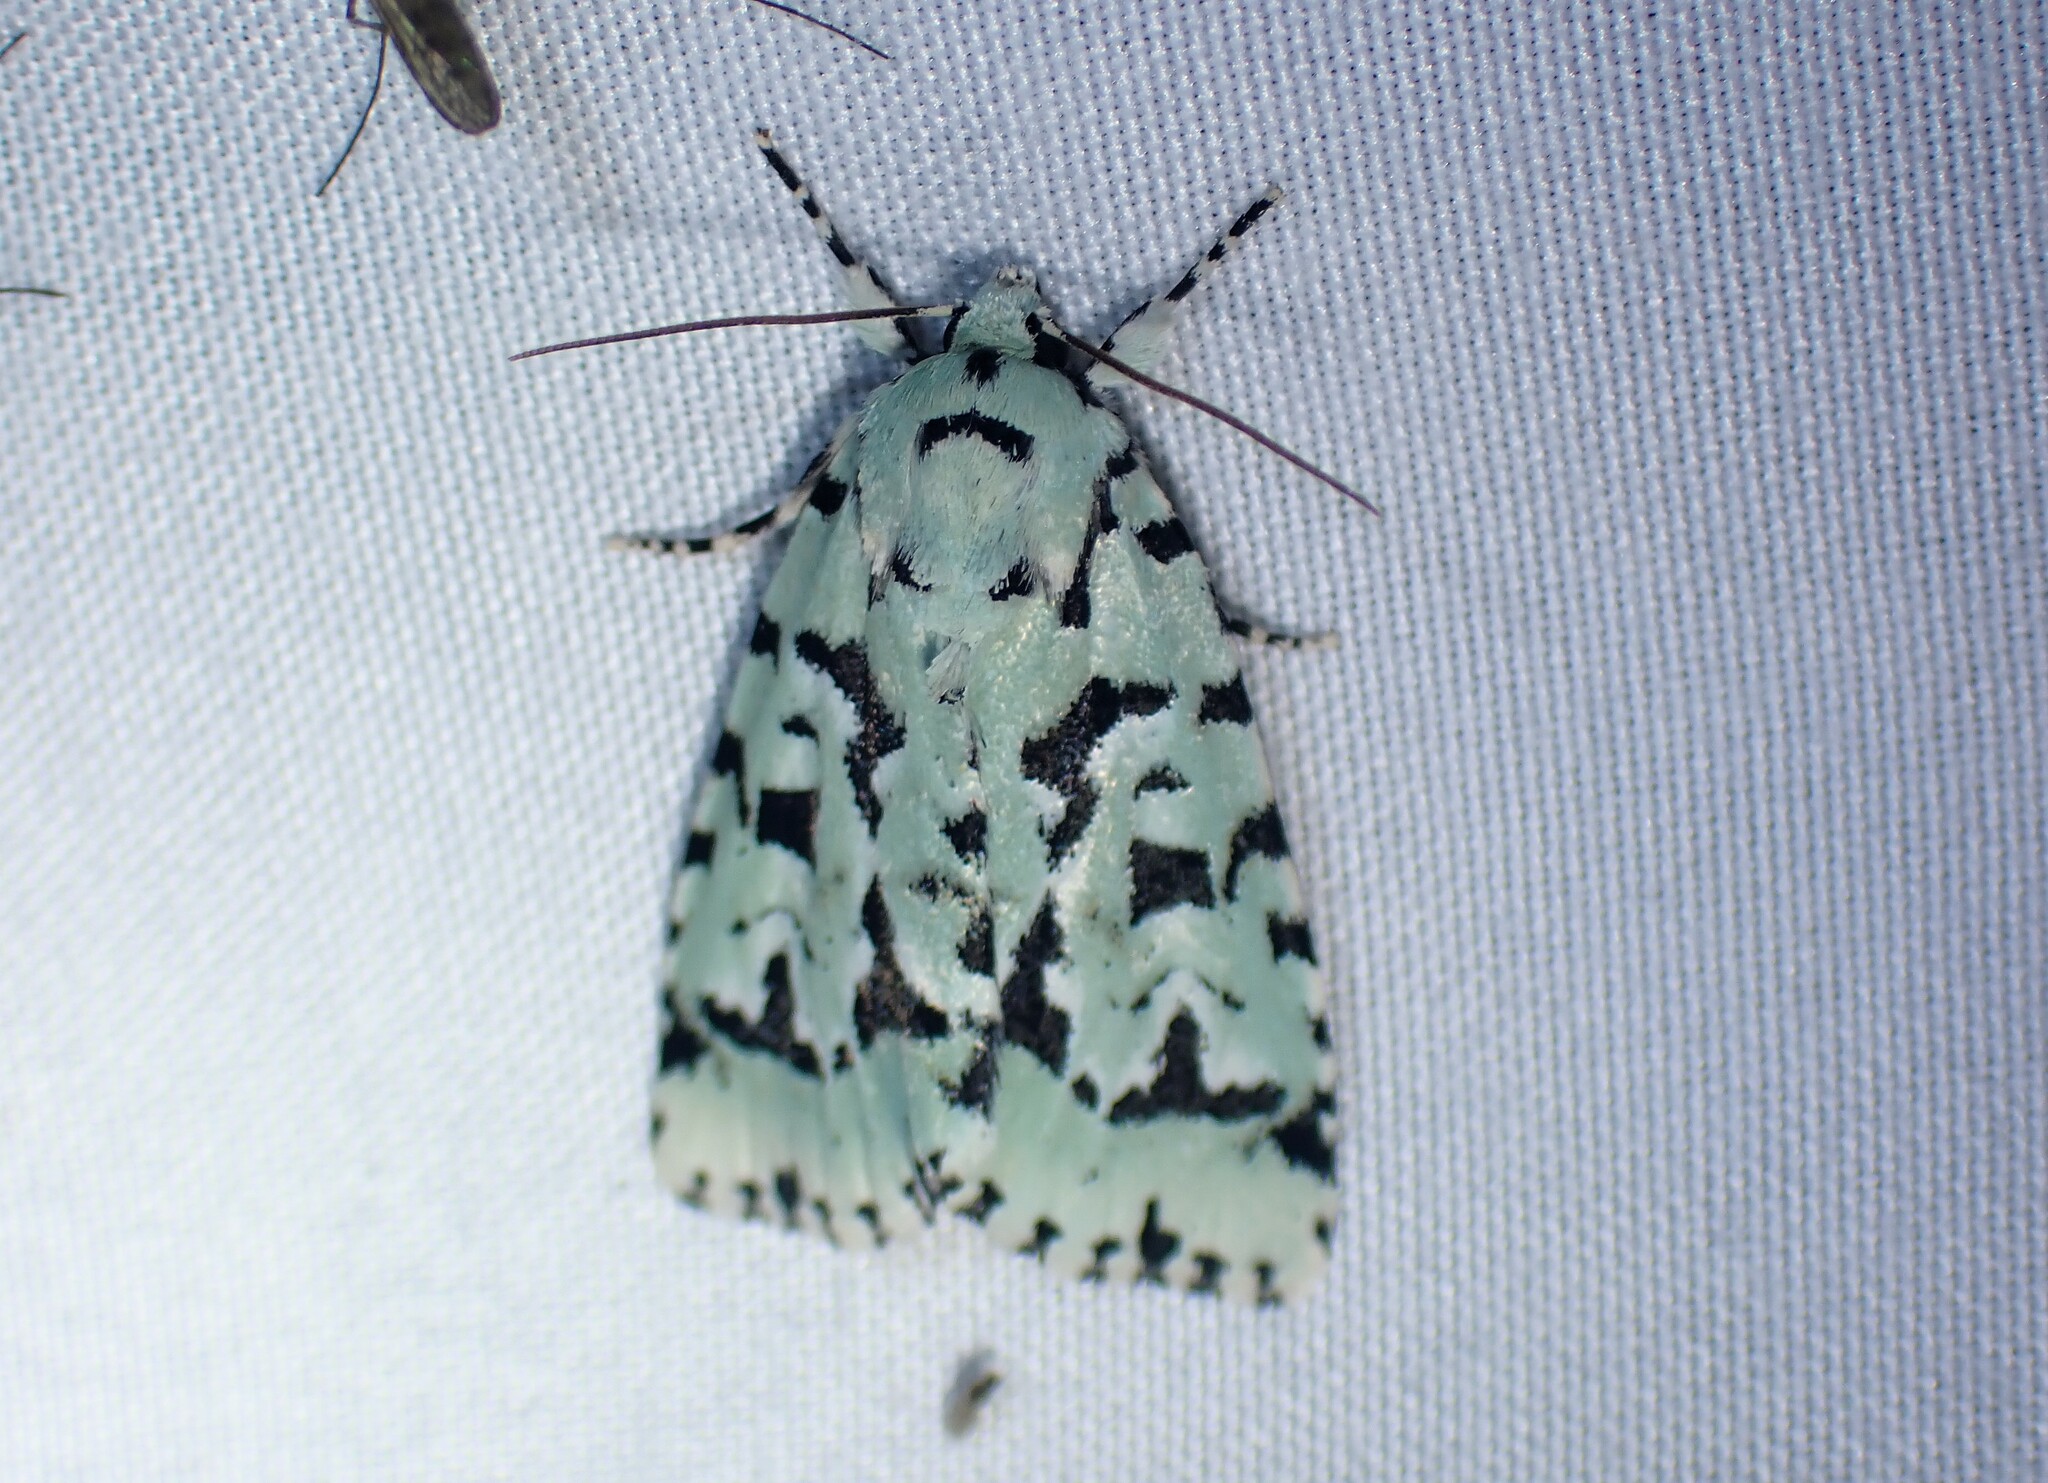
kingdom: Animalia
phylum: Arthropoda
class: Insecta
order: Lepidoptera
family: Noctuidae
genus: Acronicta
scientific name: Acronicta fallax
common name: Green marvel
